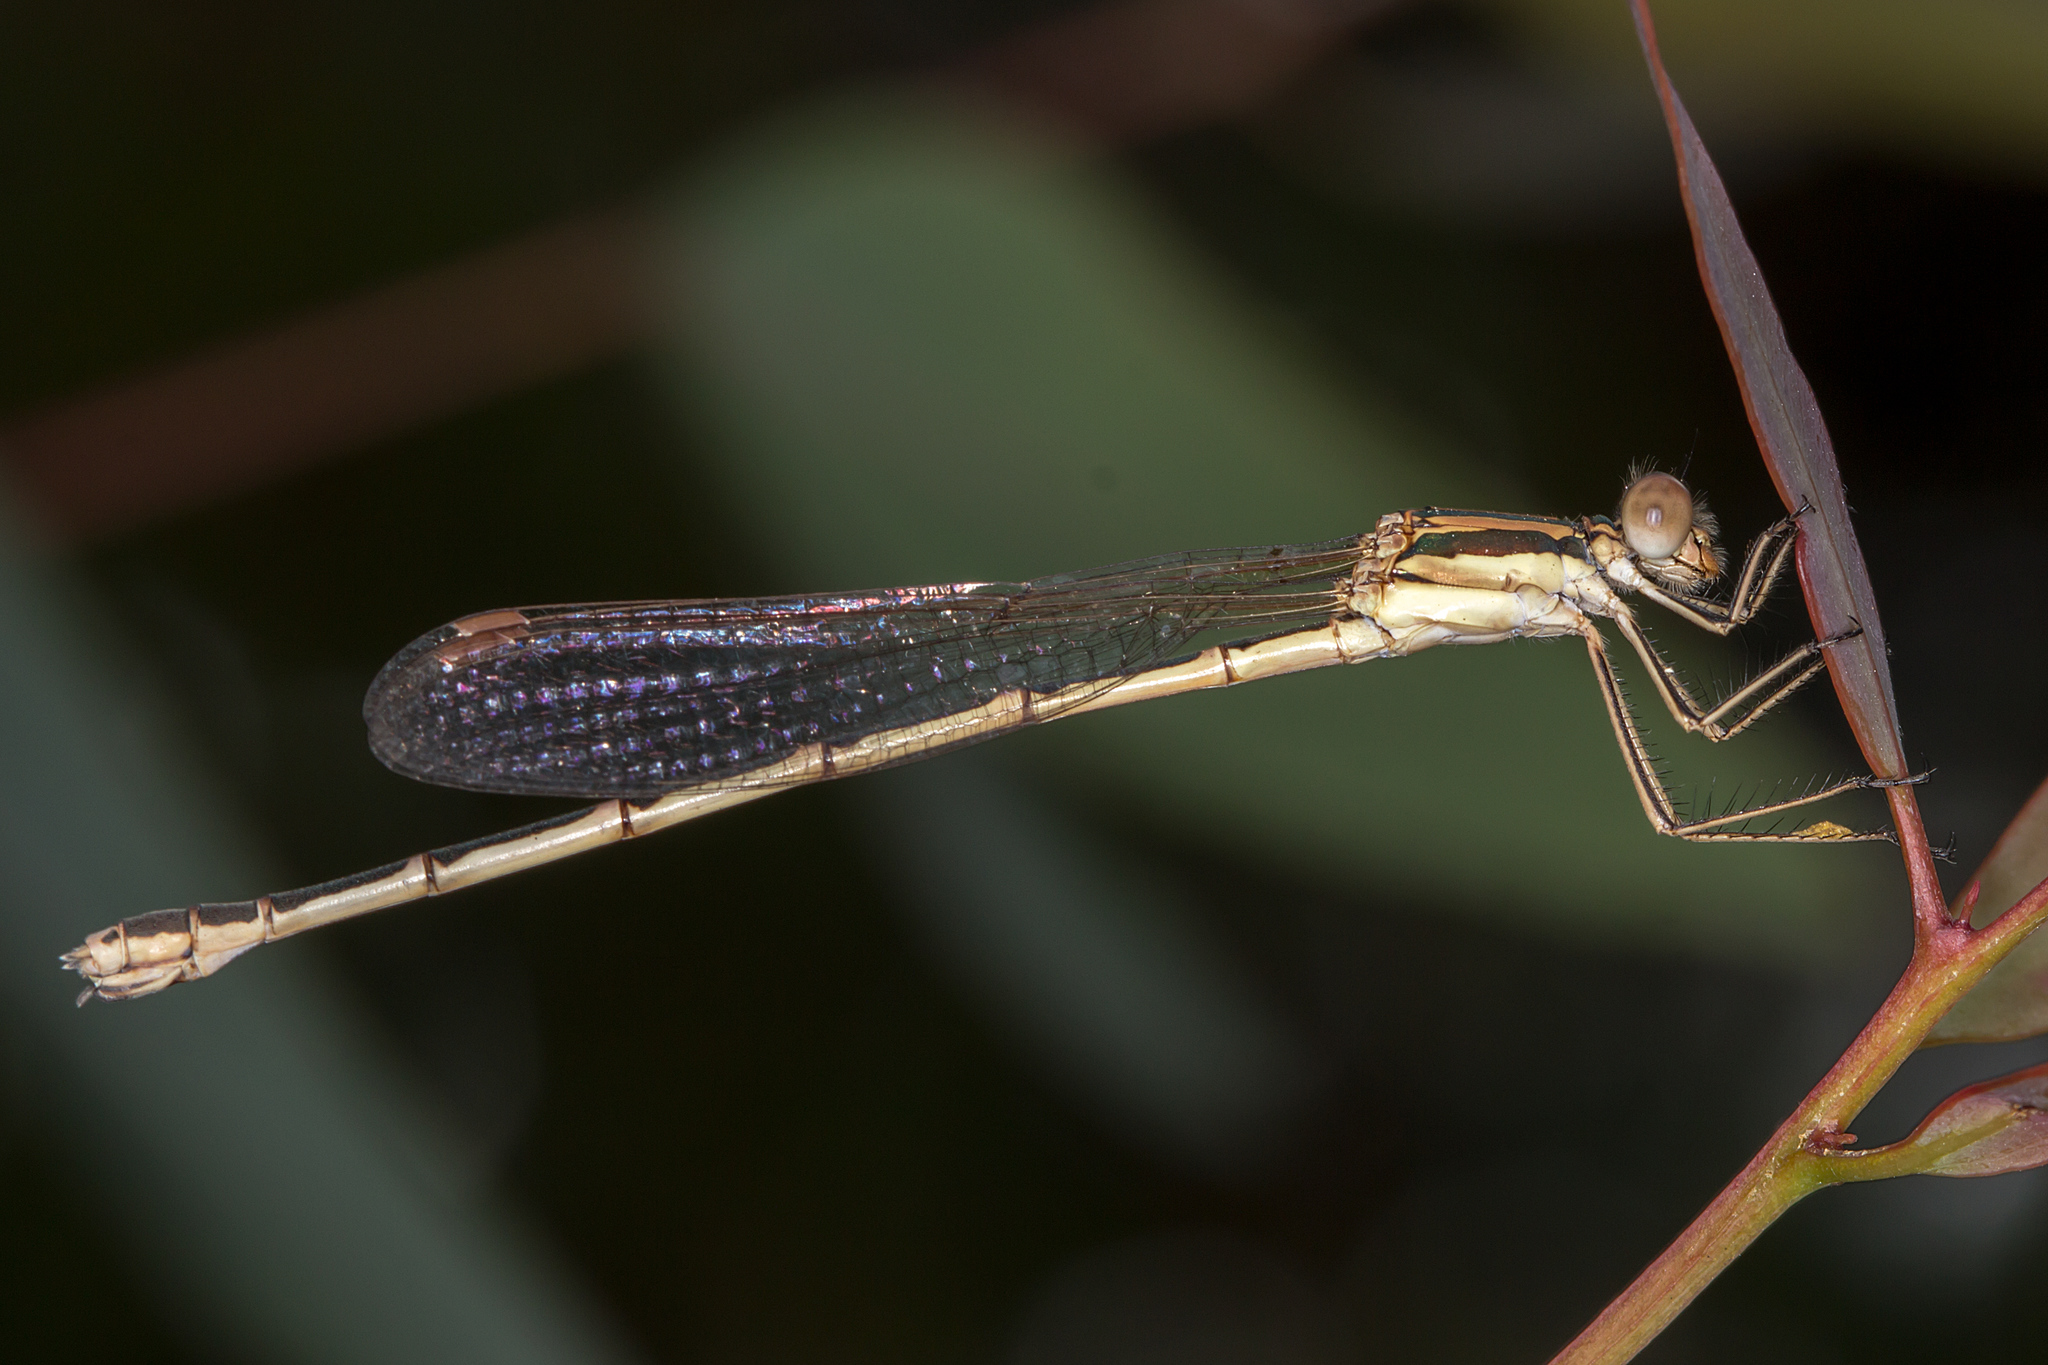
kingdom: Animalia
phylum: Arthropoda
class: Insecta
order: Odonata
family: Lestidae
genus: Austrolestes
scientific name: Austrolestes analis
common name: Slender ringtail
